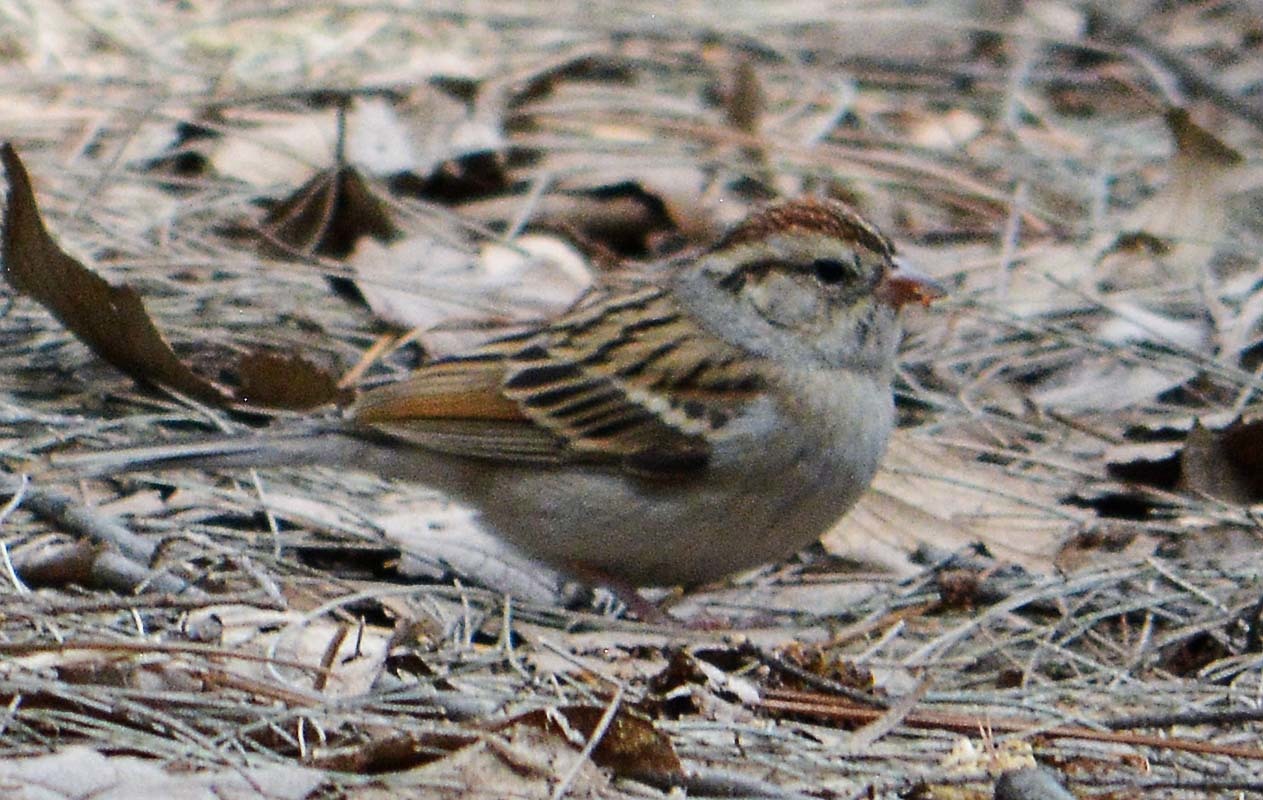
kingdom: Animalia
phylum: Chordata
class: Aves
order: Passeriformes
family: Passerellidae
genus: Spizella
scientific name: Spizella passerina
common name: Chipping sparrow
